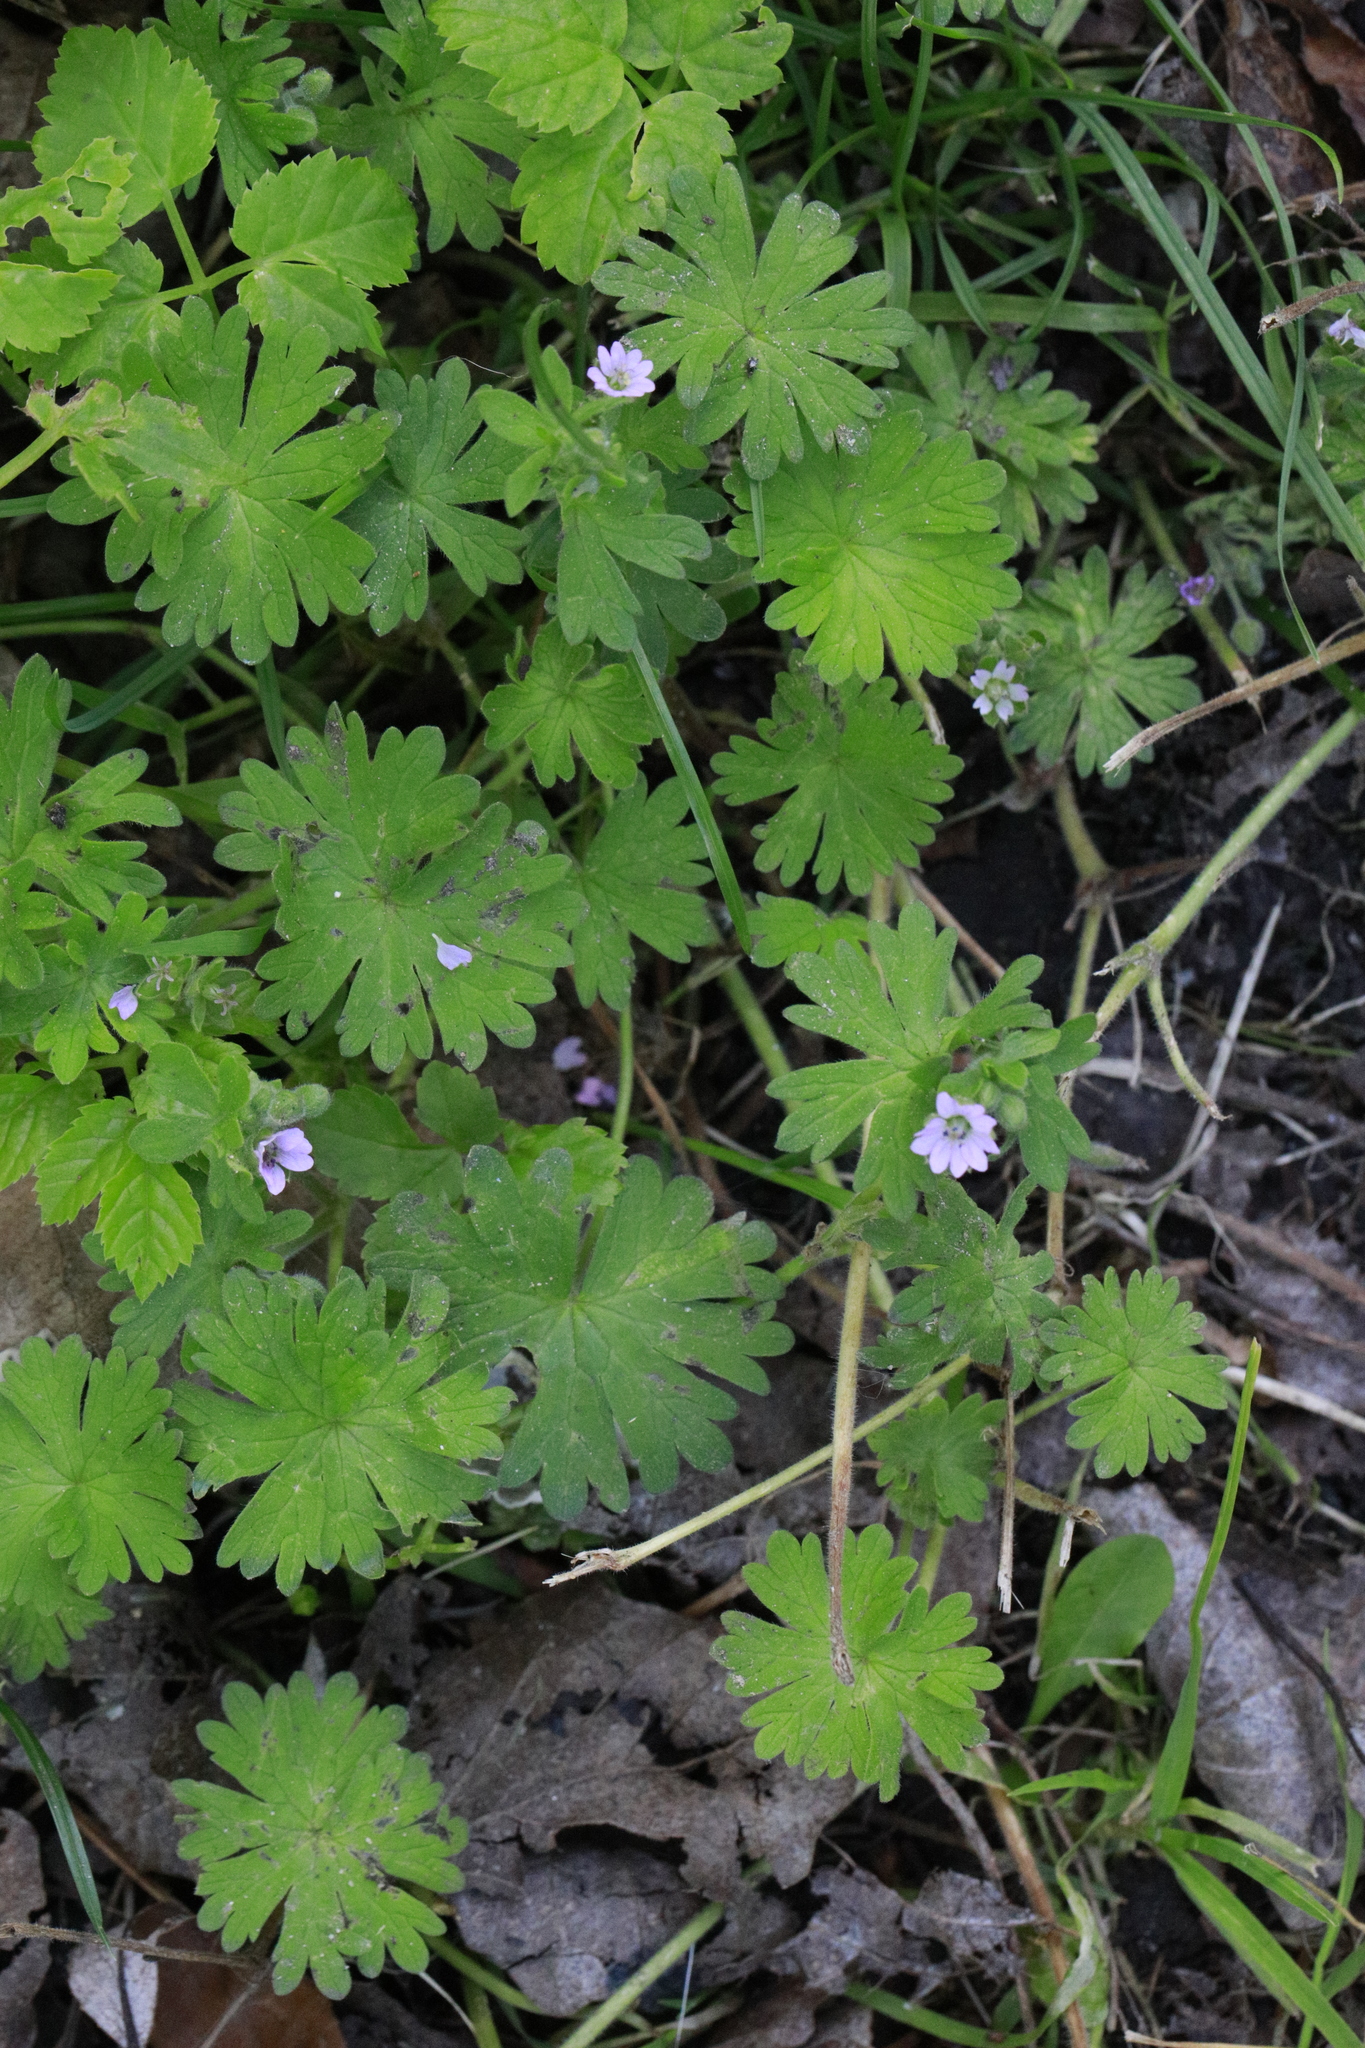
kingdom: Plantae
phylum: Tracheophyta
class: Magnoliopsida
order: Geraniales
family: Geraniaceae
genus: Geranium
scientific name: Geranium molle
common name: Dove's-foot crane's-bill
